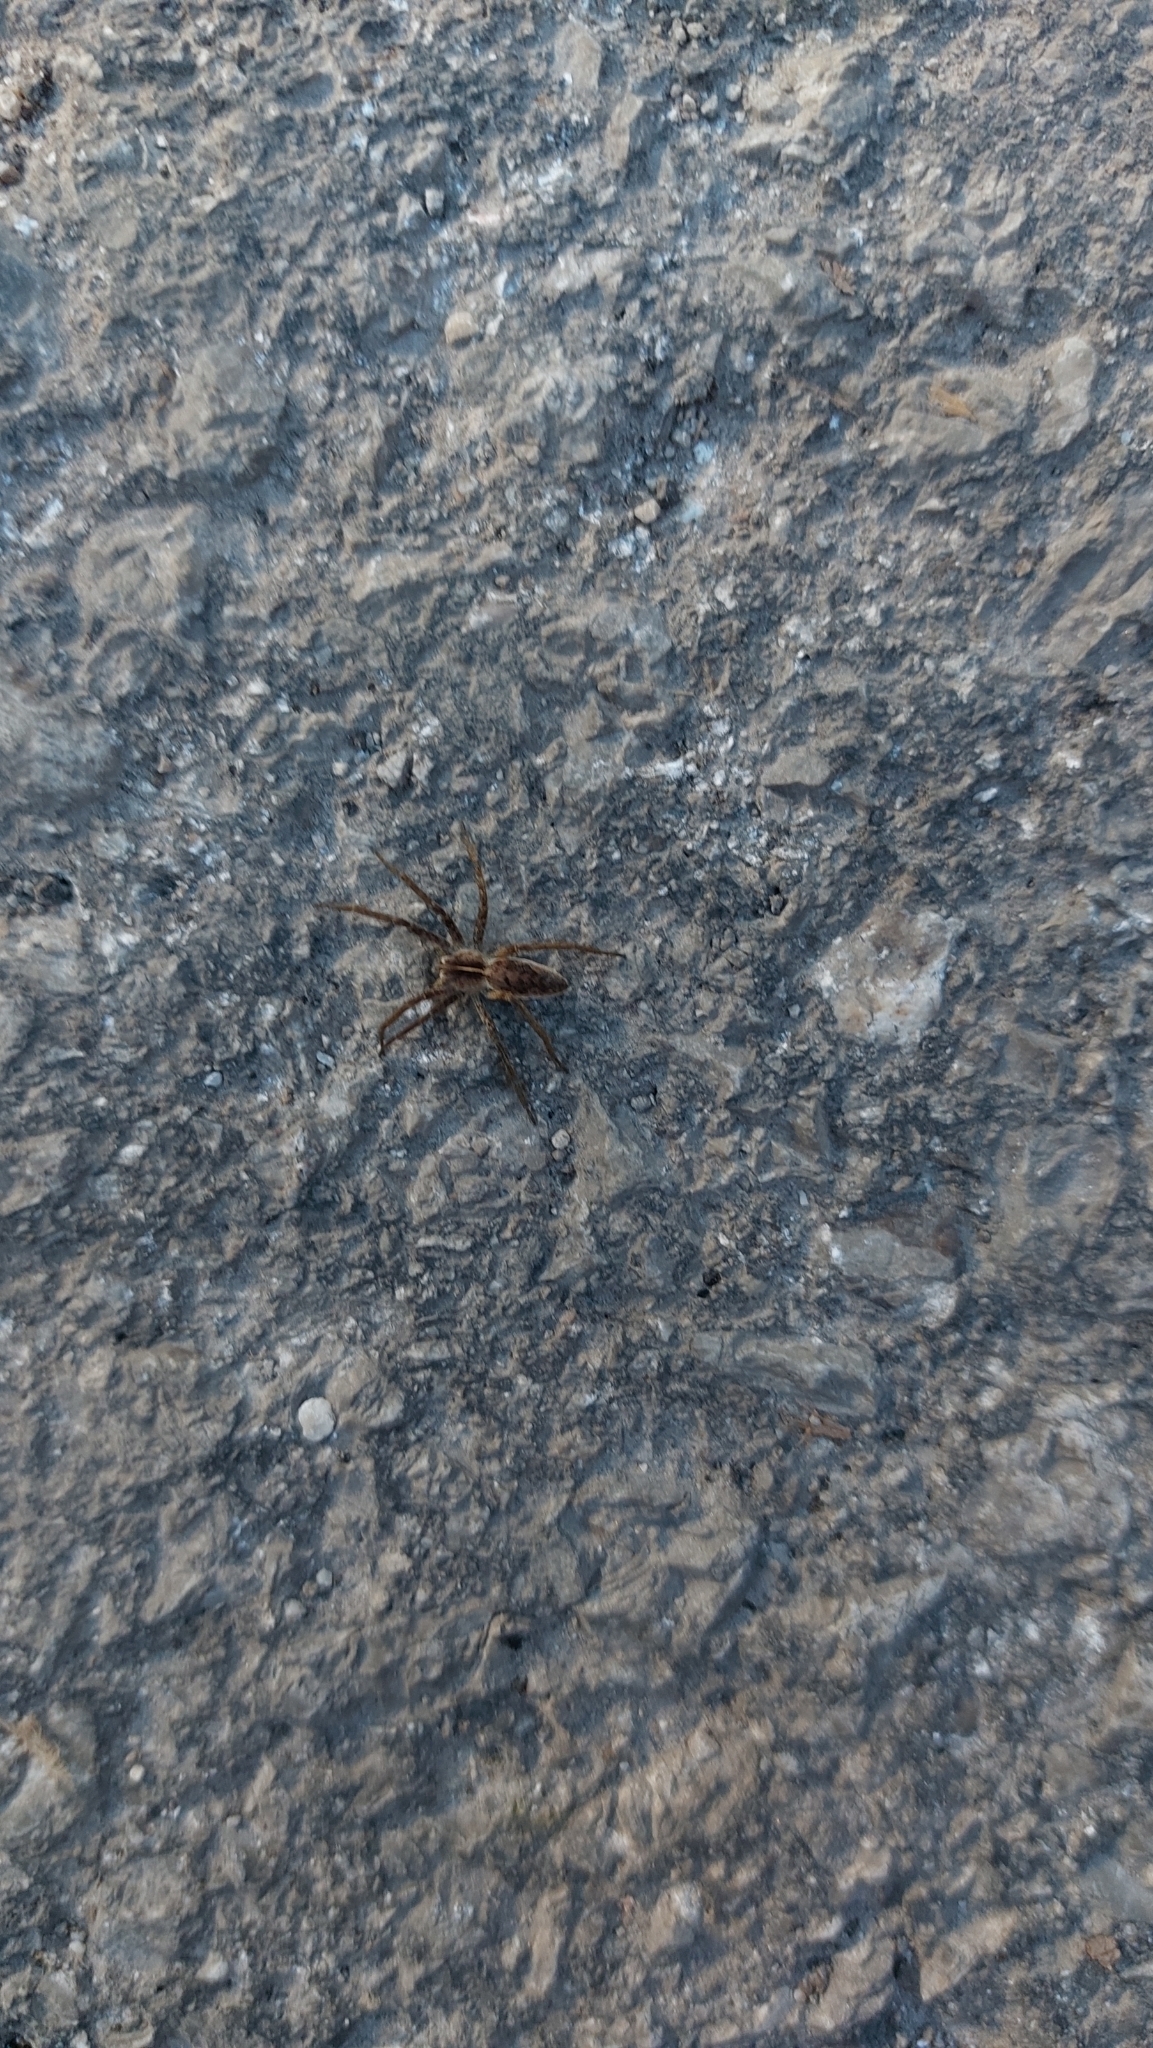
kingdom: Animalia
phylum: Arthropoda
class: Arachnida
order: Araneae
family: Pisauridae
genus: Pisaura
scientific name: Pisaura mirabilis
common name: Tent spider
